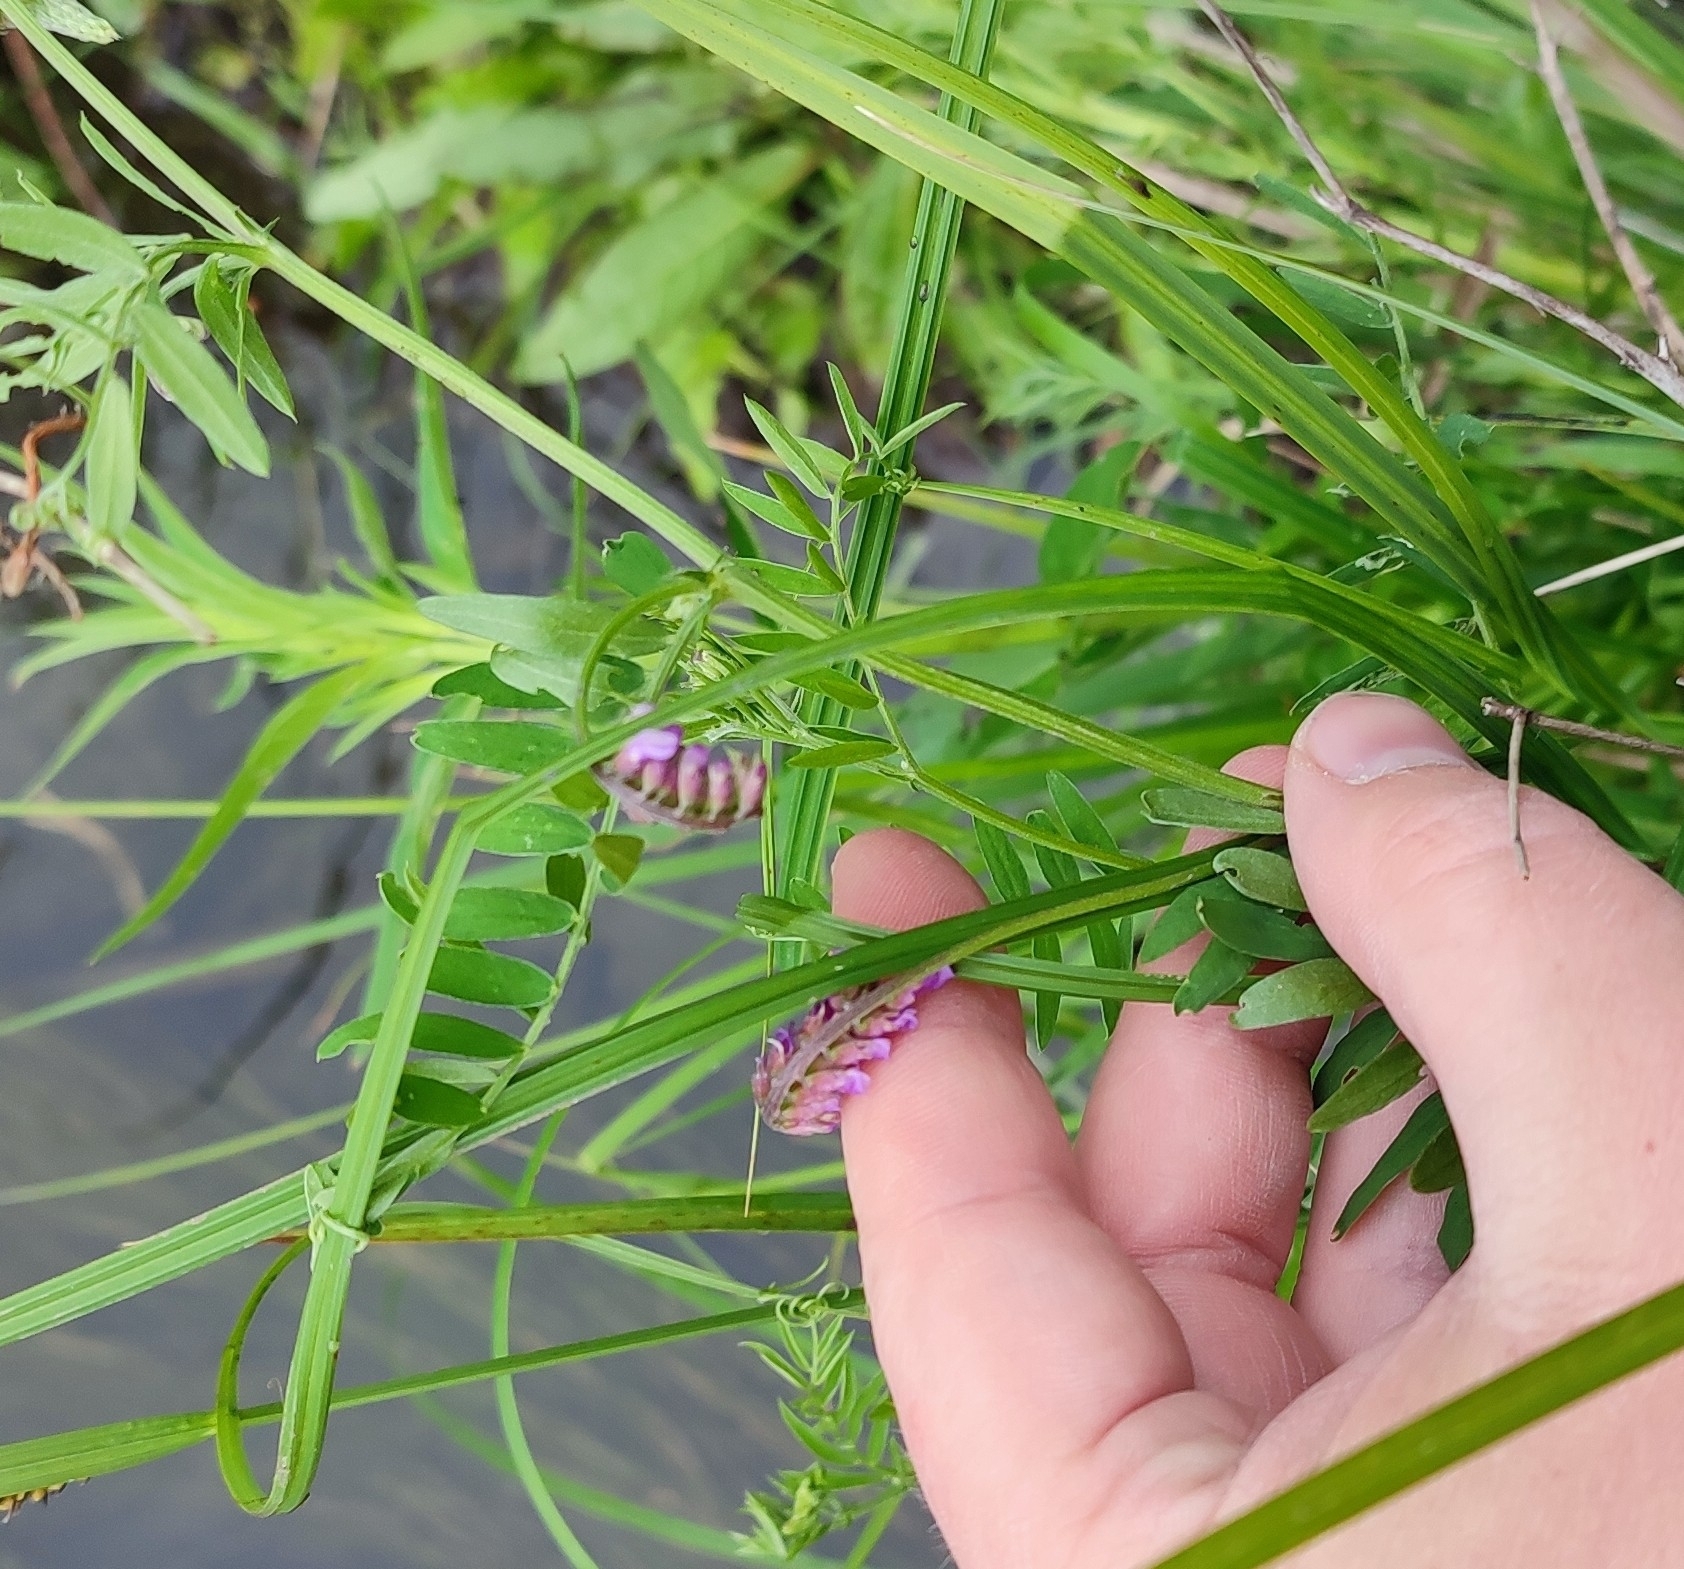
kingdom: Plantae
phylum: Tracheophyta
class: Magnoliopsida
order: Fabales
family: Fabaceae
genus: Vicia
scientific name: Vicia cracca
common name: Bird vetch
